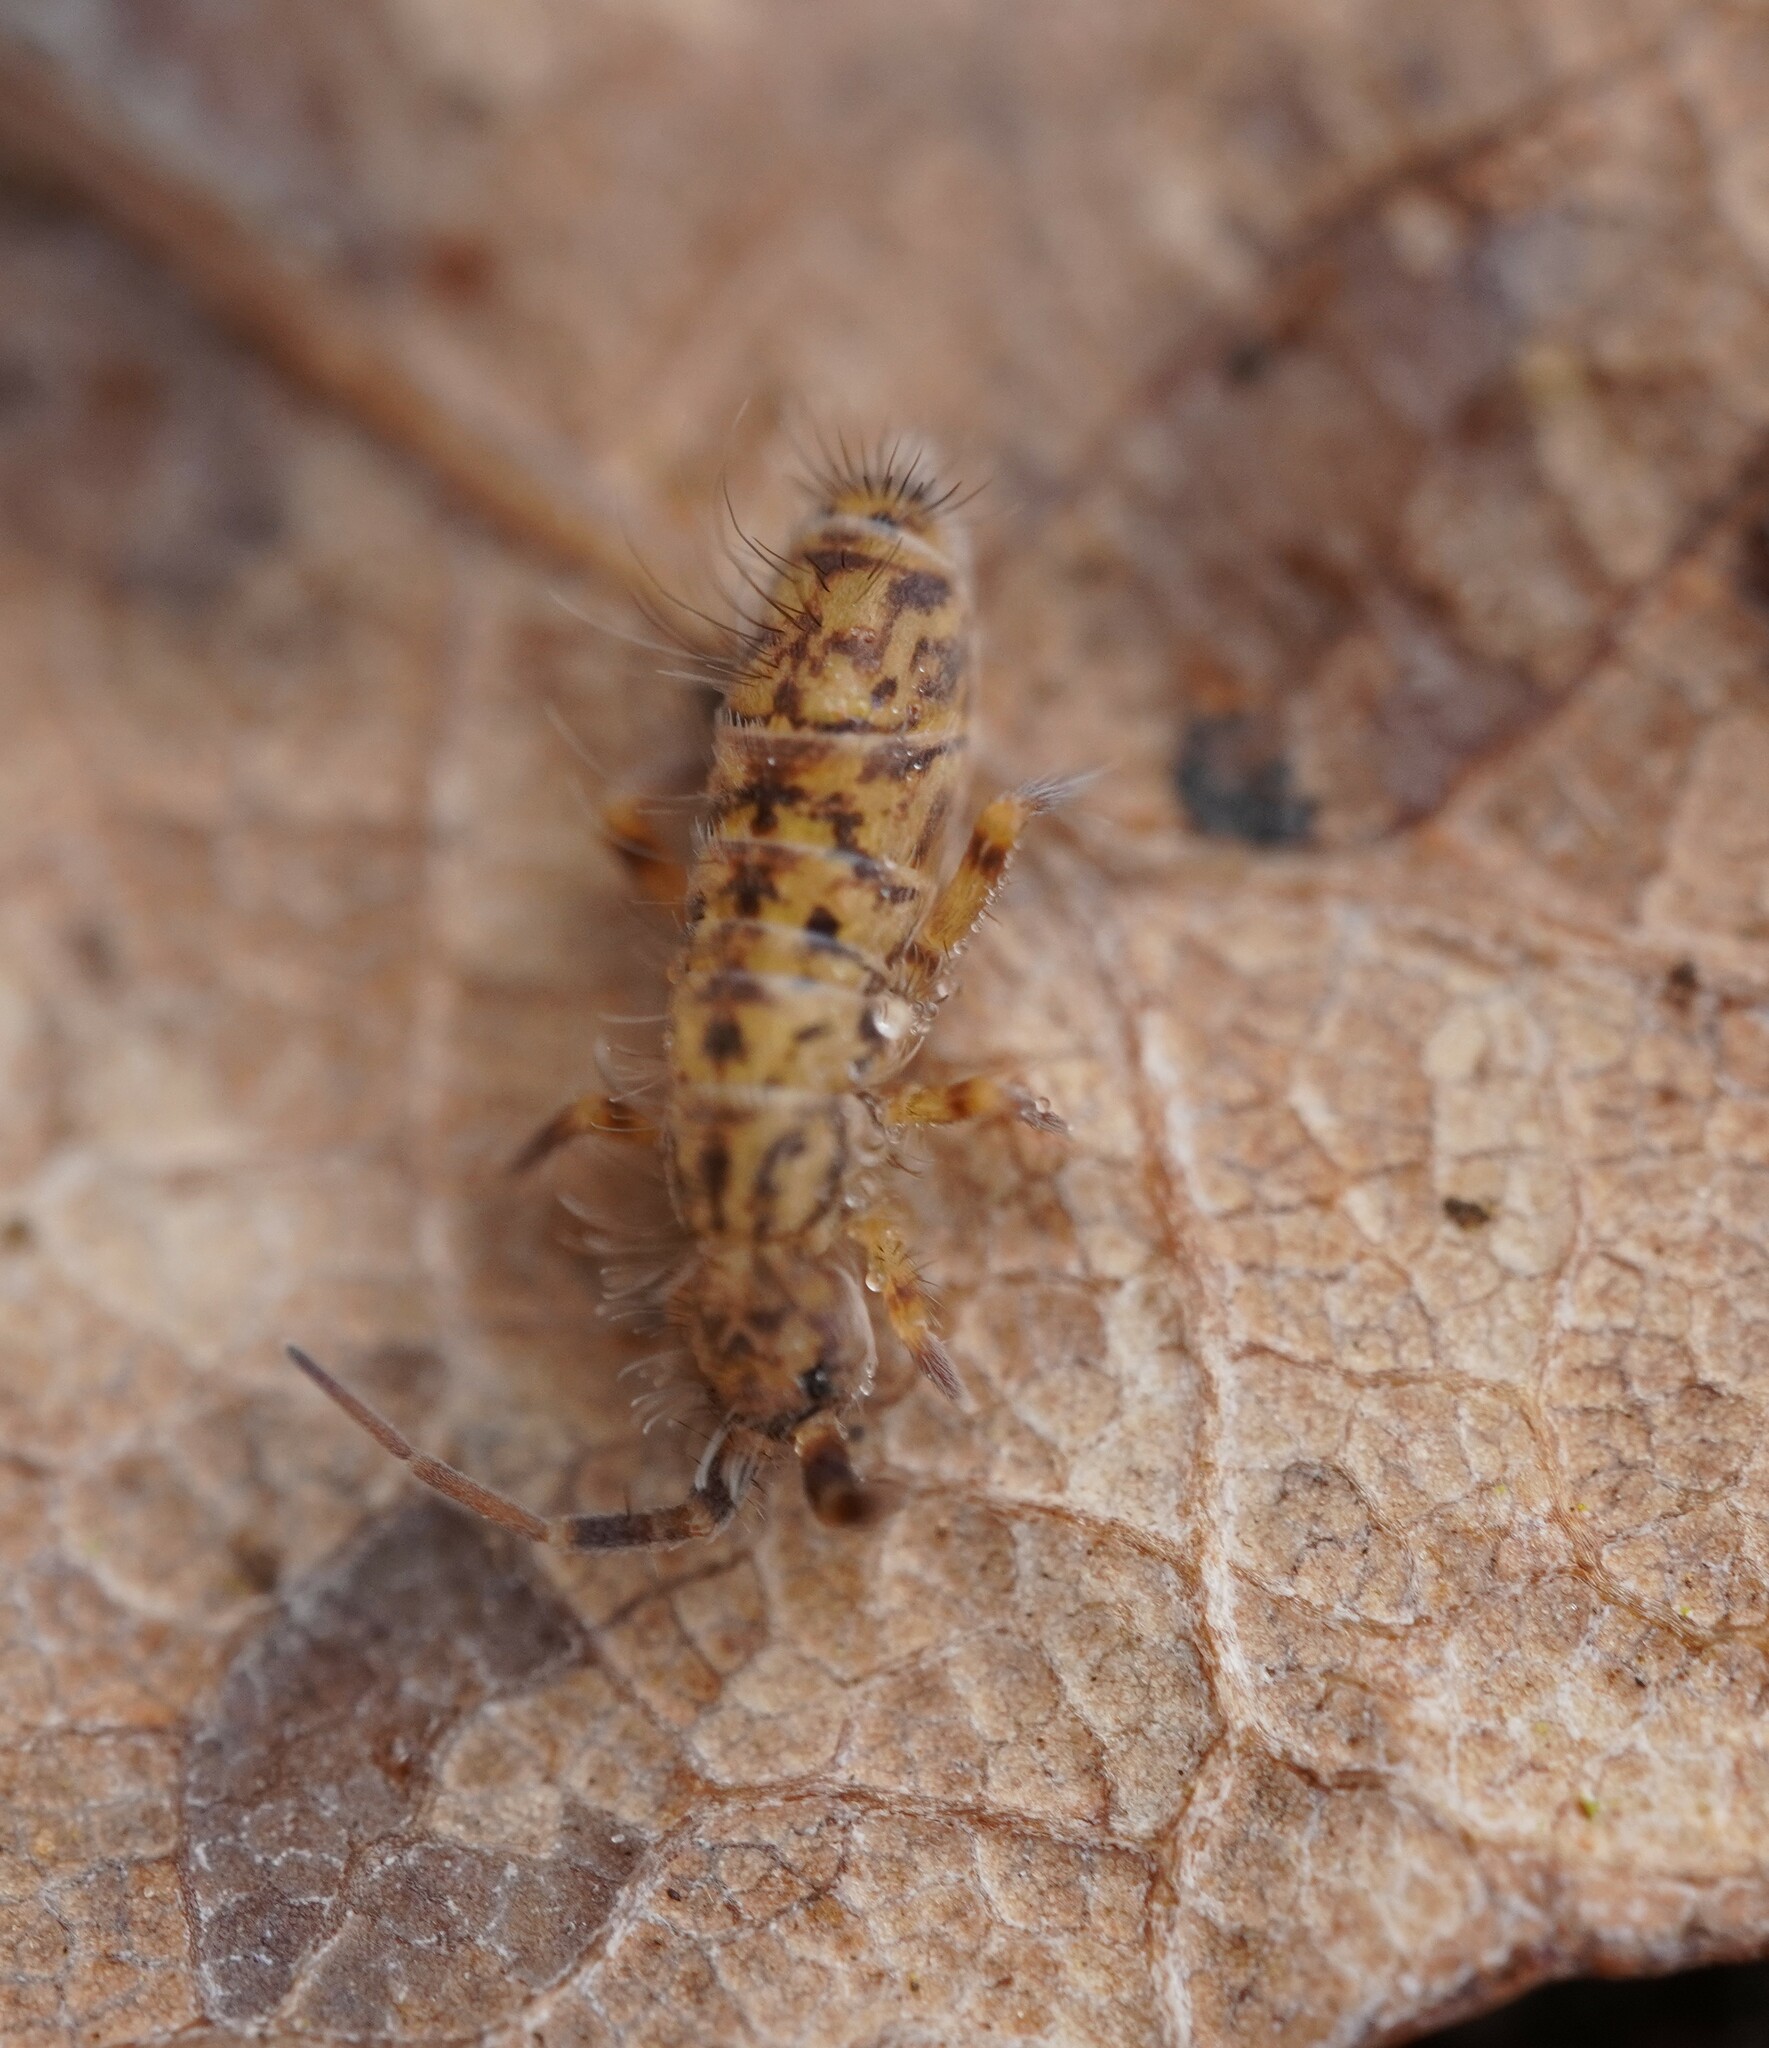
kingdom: Animalia
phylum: Arthropoda
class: Collembola
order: Entomobryomorpha
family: Orchesellidae
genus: Orchesella
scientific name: Orchesella villosa
